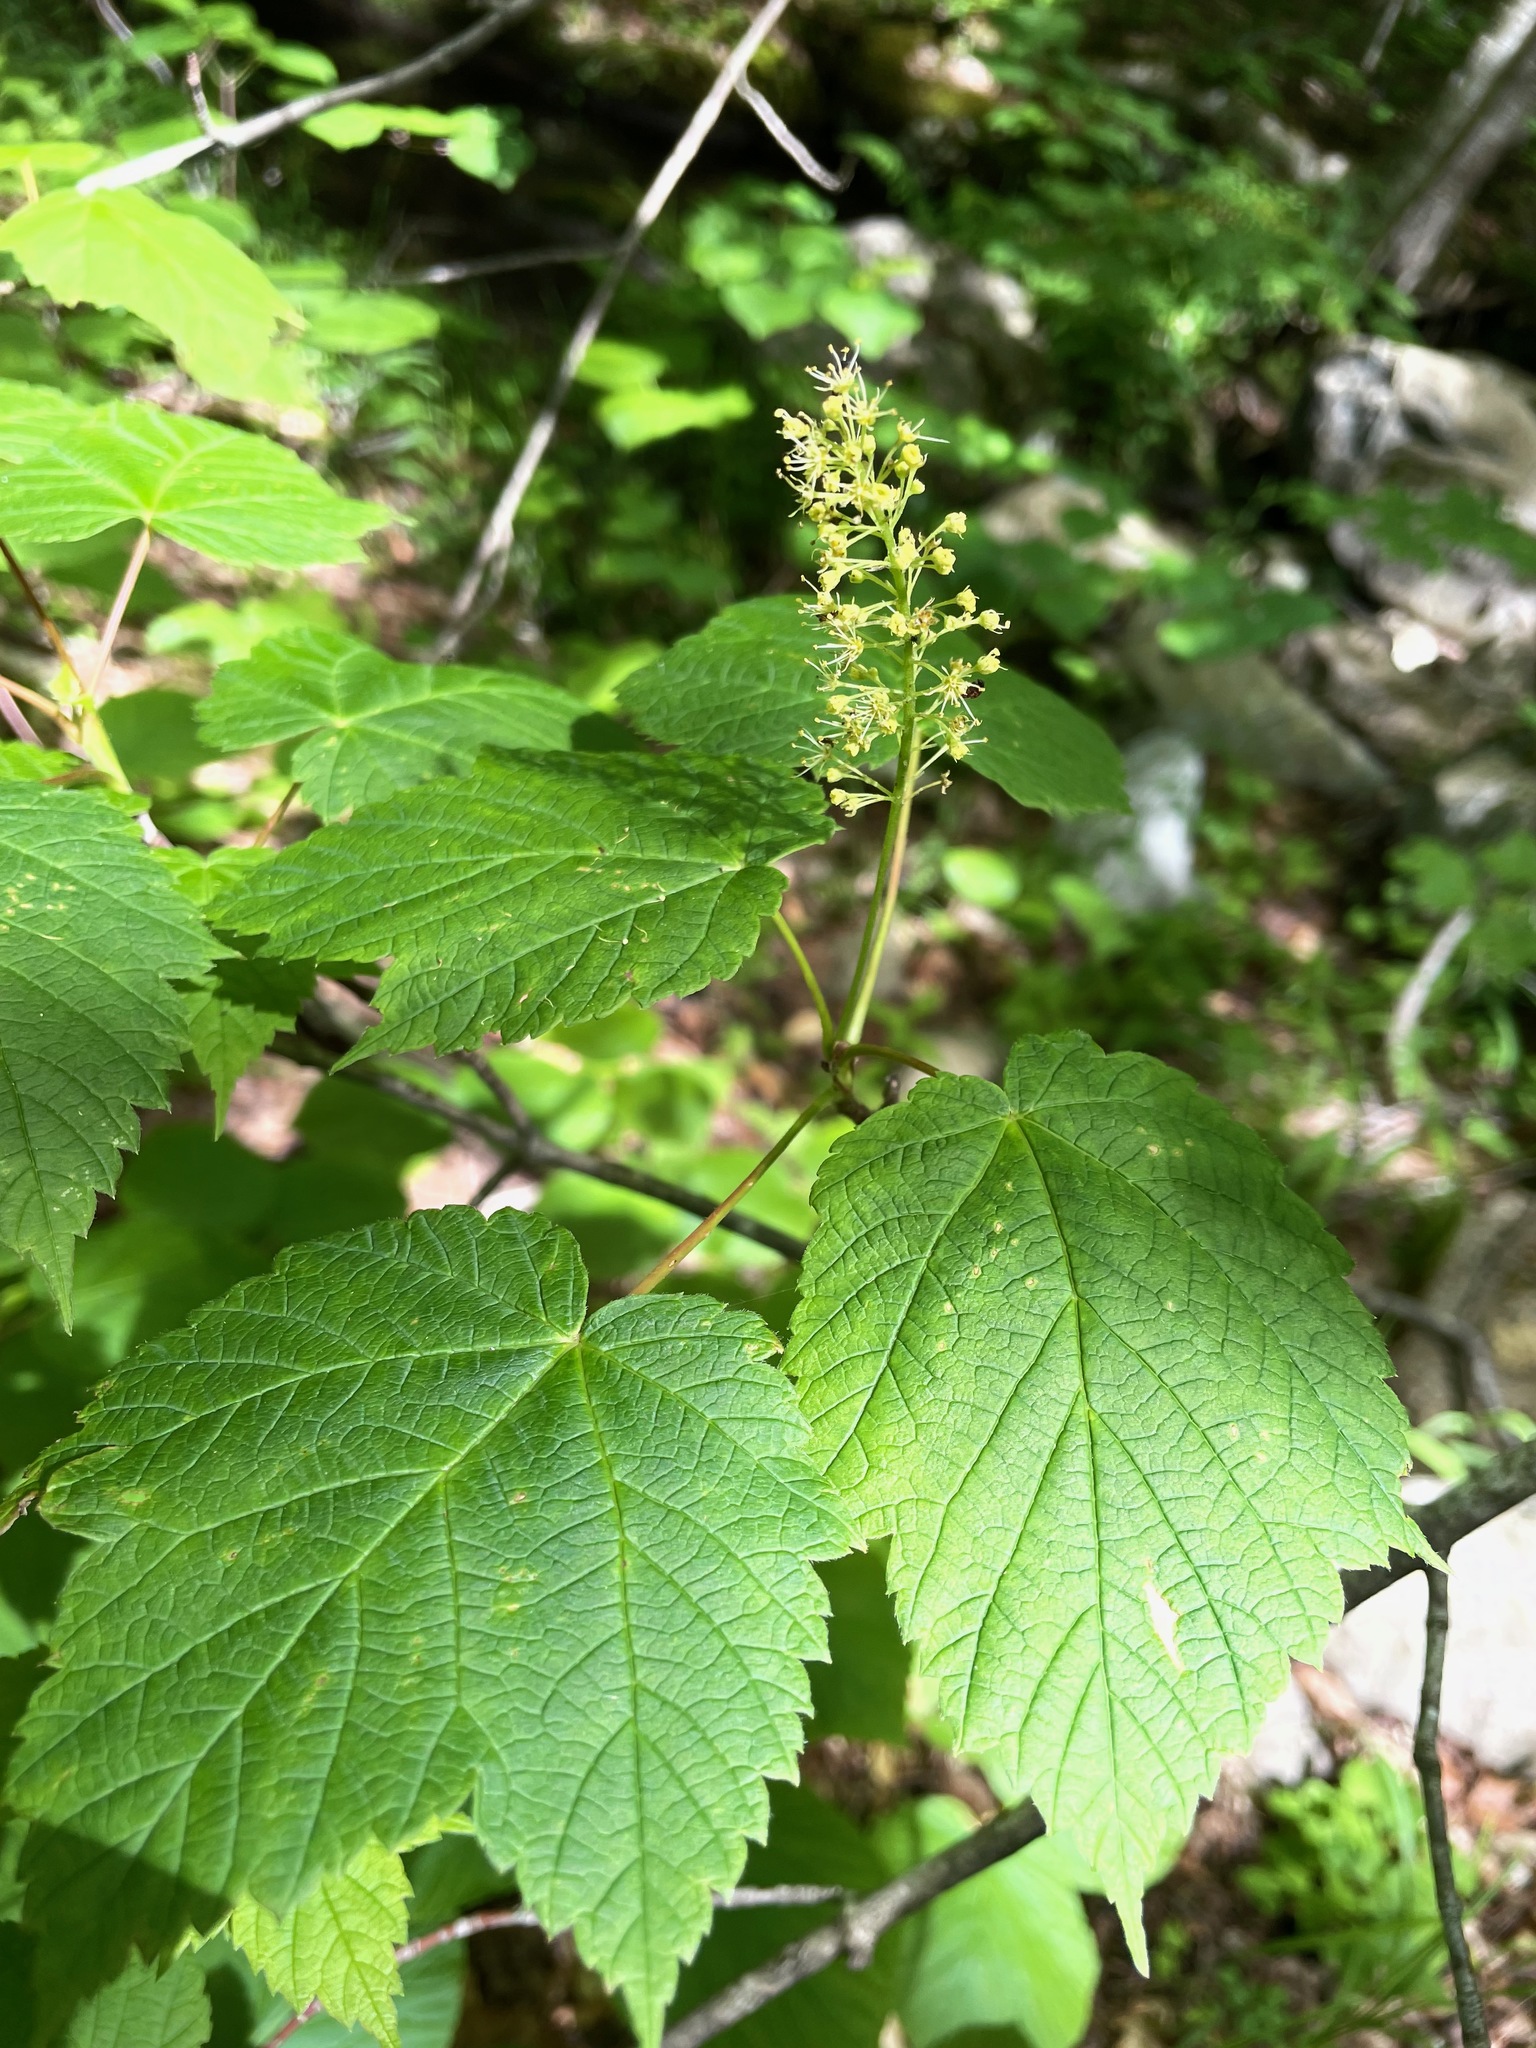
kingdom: Plantae
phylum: Tracheophyta
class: Magnoliopsida
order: Sapindales
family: Sapindaceae
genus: Acer
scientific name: Acer spicatum
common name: Mountain maple
